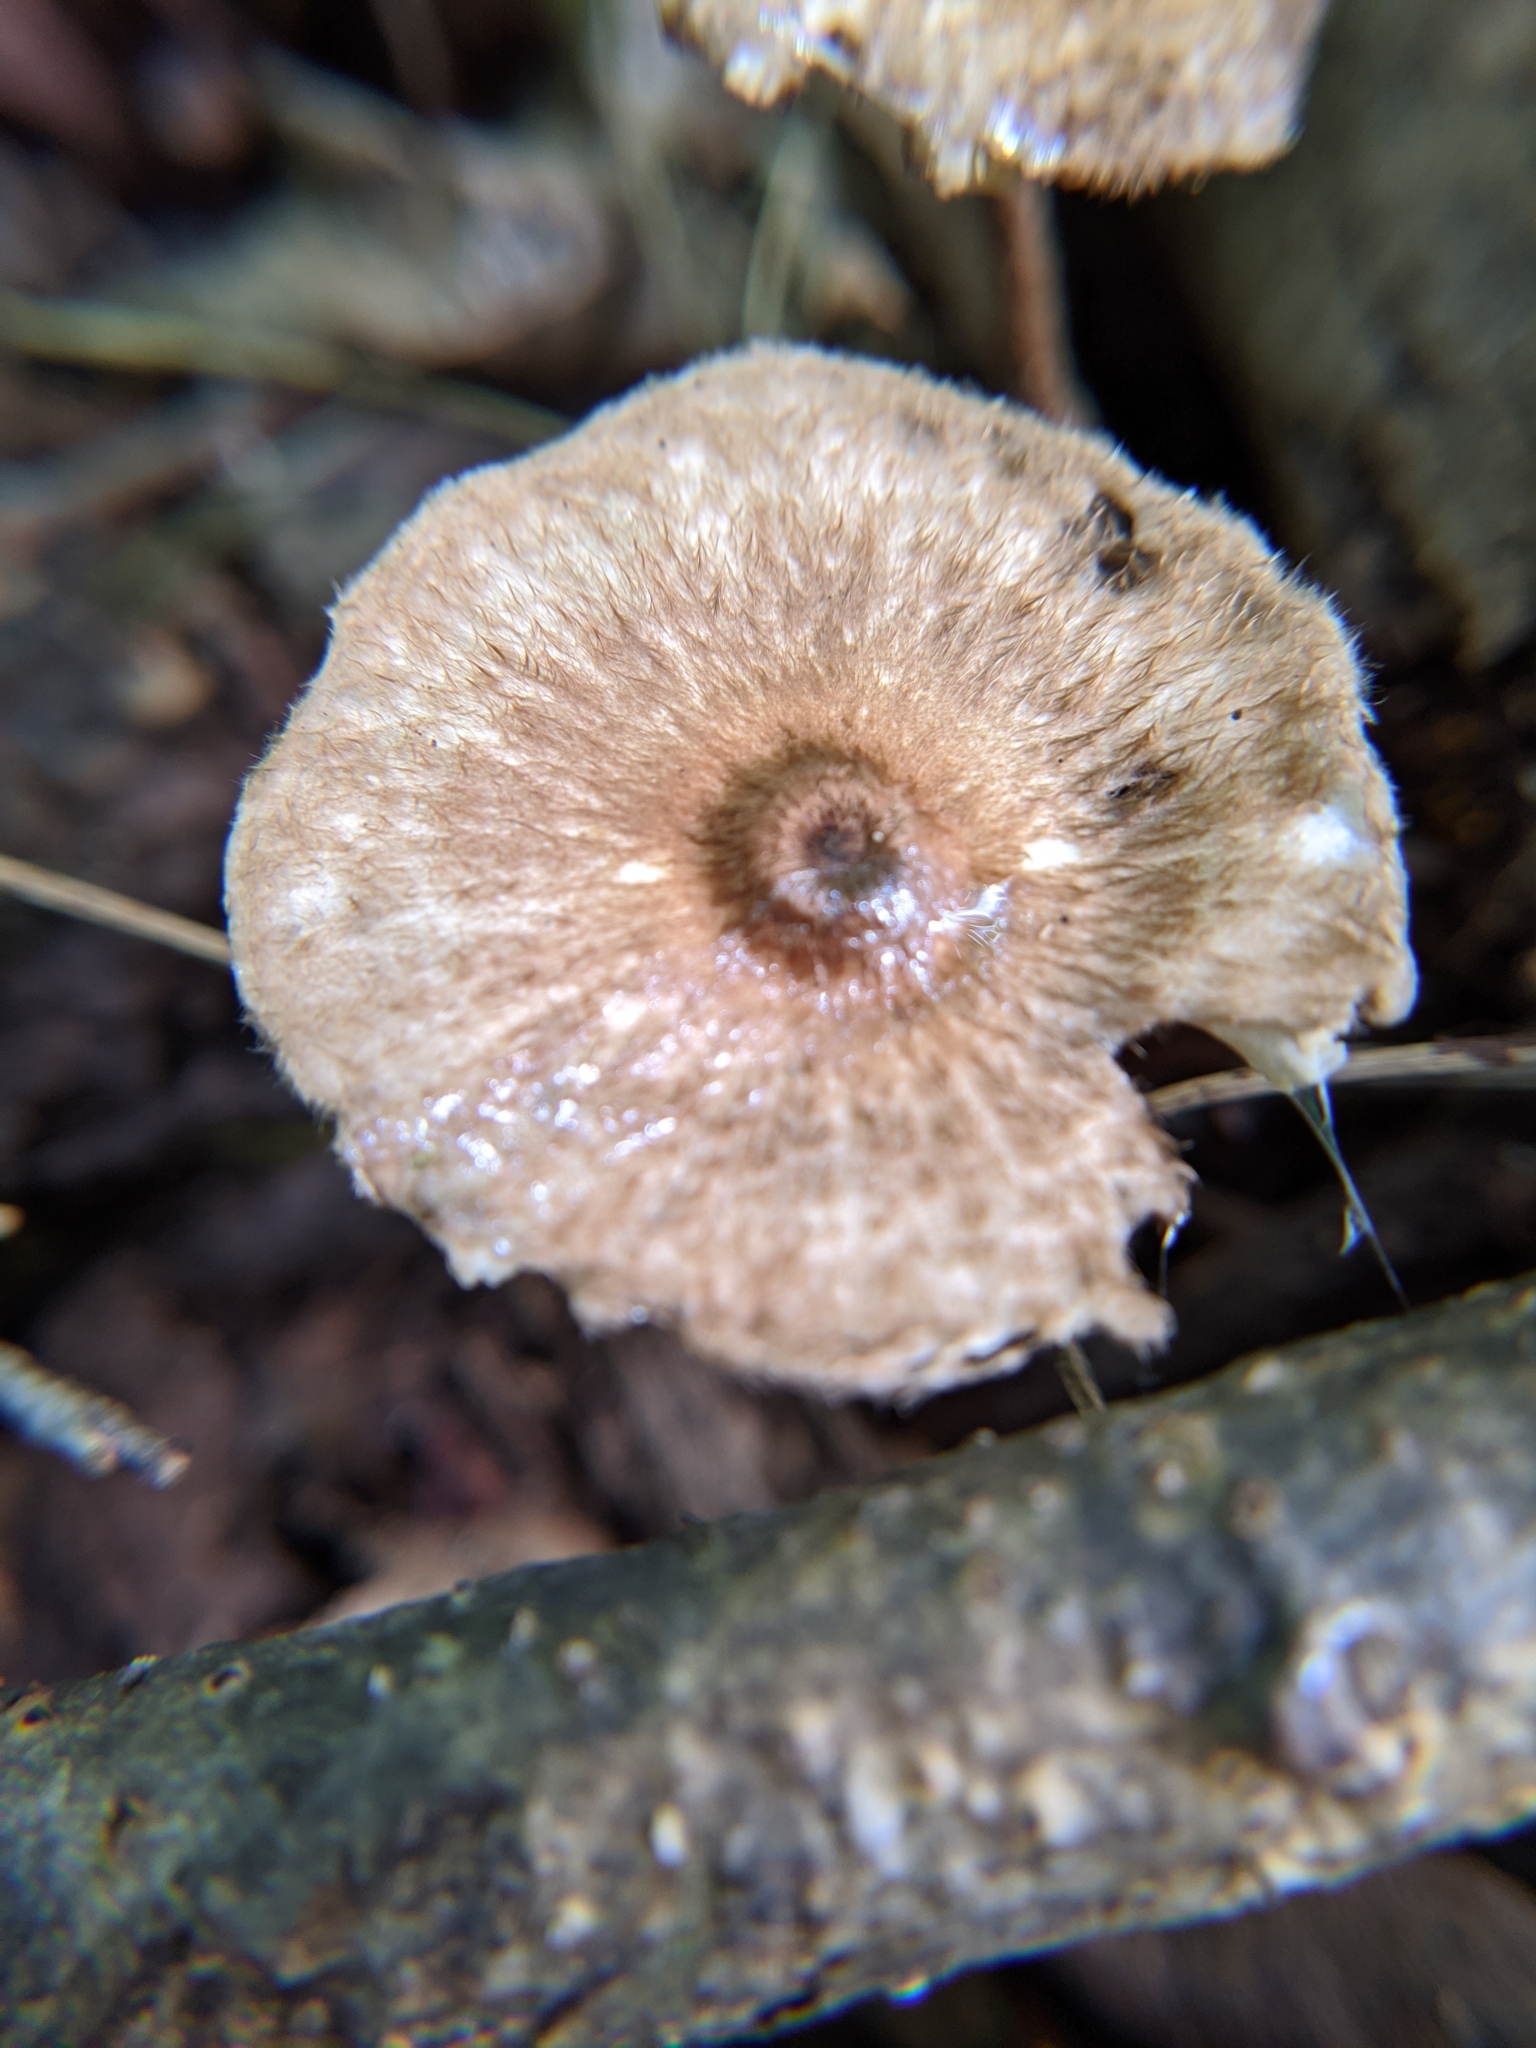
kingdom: Fungi
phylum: Basidiomycota
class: Agaricomycetes
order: Agaricales
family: Tricholomataceae
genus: Collybia
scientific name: Collybia zonata
